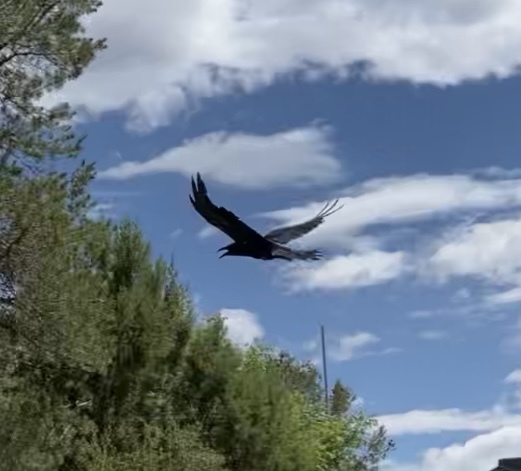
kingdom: Animalia
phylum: Chordata
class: Aves
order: Passeriformes
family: Corvidae
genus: Corvus
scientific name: Corvus corax
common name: Common raven
